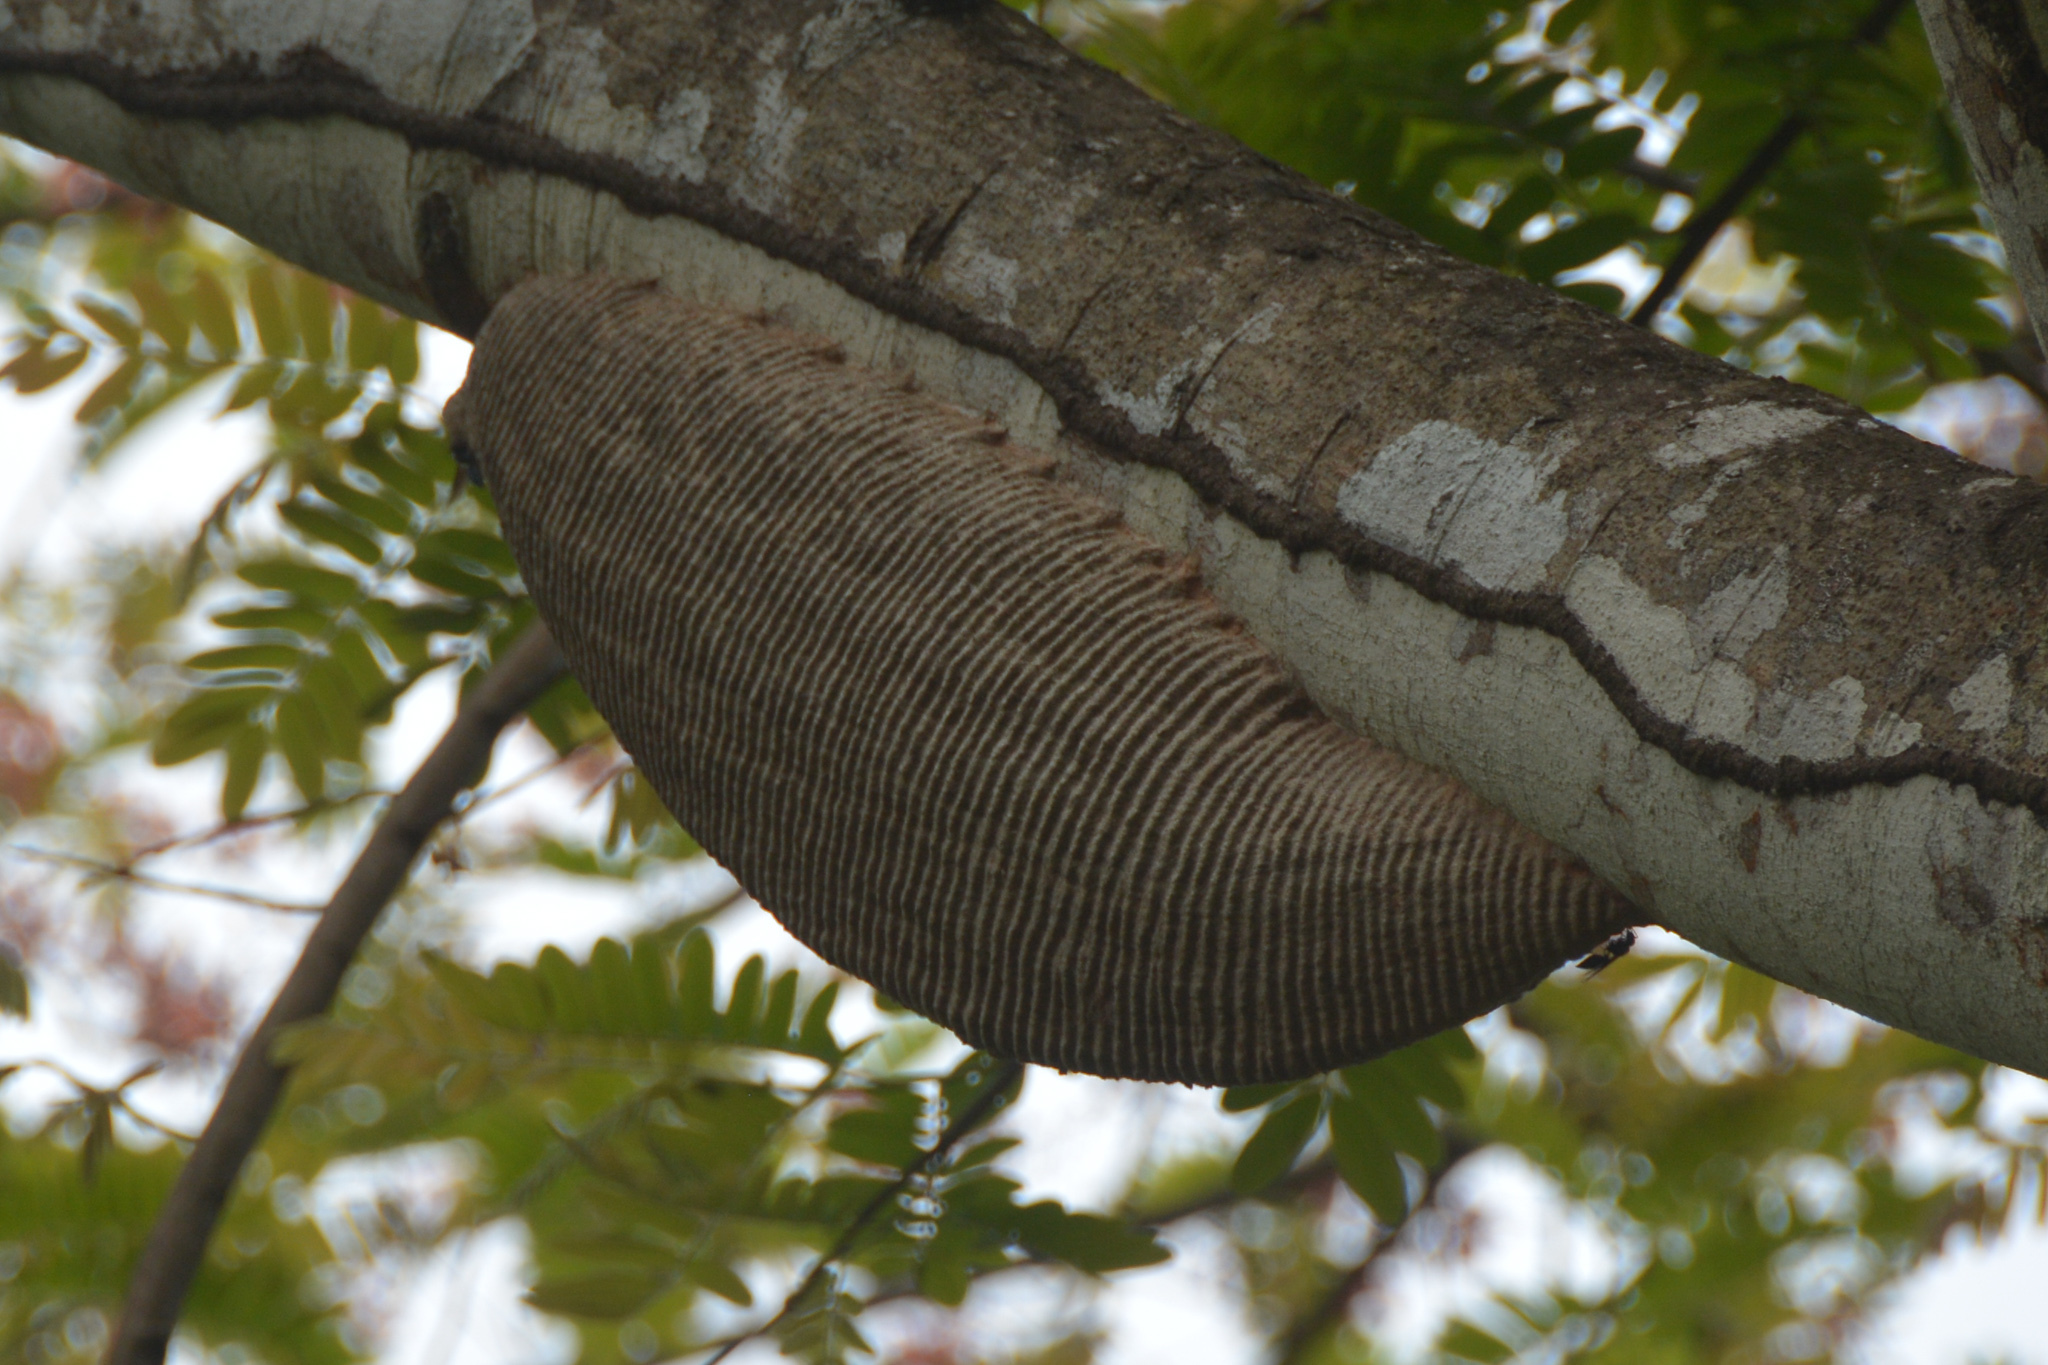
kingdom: Animalia
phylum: Arthropoda
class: Insecta
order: Hymenoptera
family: Vespidae
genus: Synoeca
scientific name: Synoeca septentrionalis
